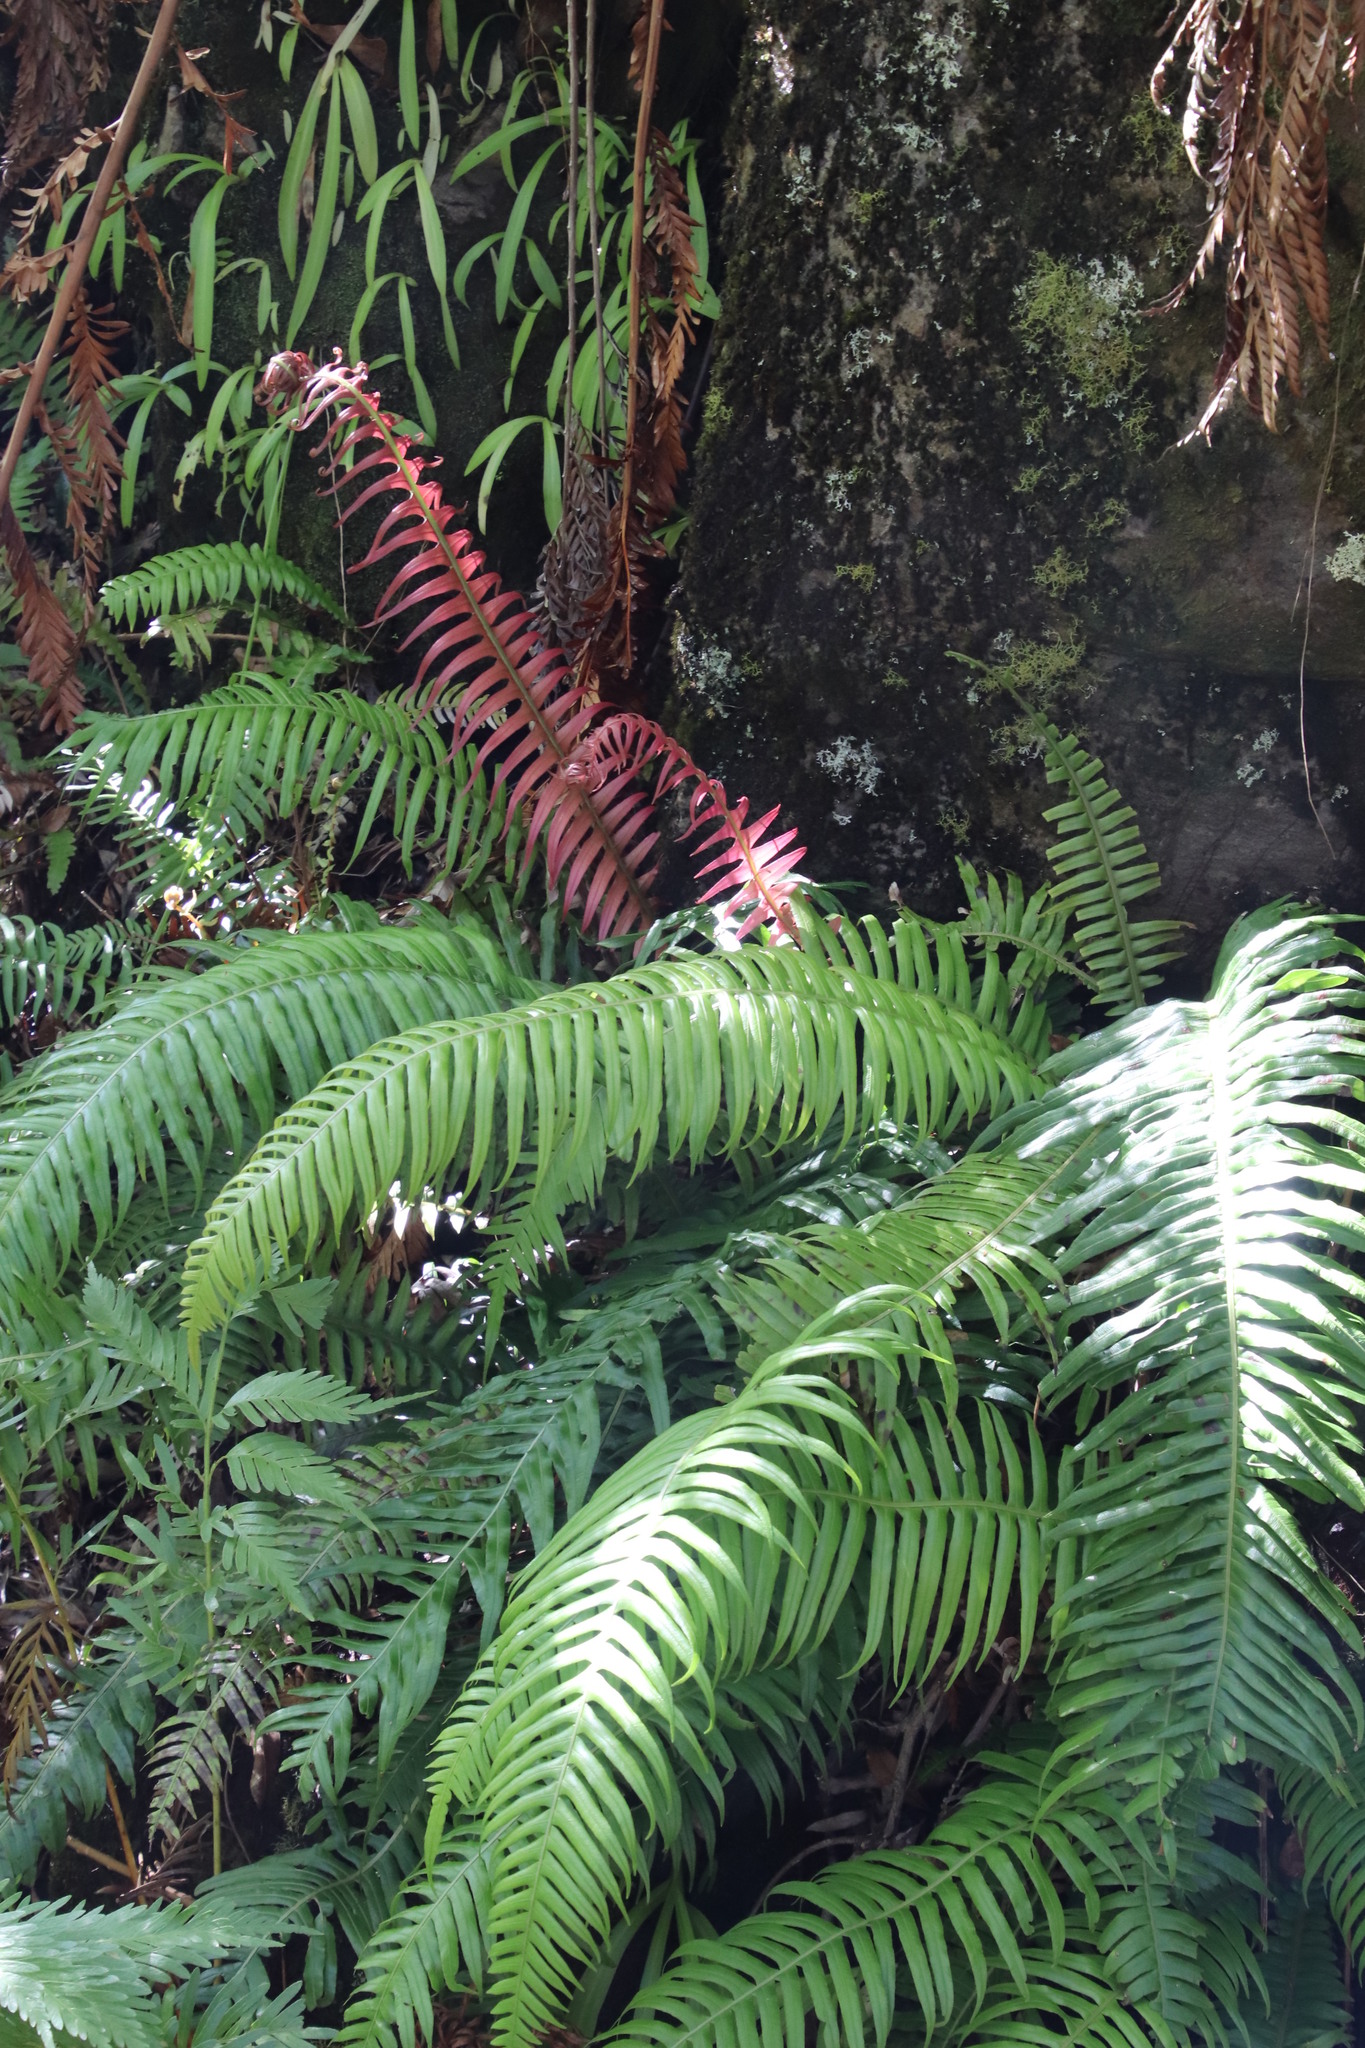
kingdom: Plantae
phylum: Tracheophyta
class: Polypodiopsida
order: Polypodiales
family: Blechnaceae
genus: Lomaridium
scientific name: Lomaridium attenuatum
